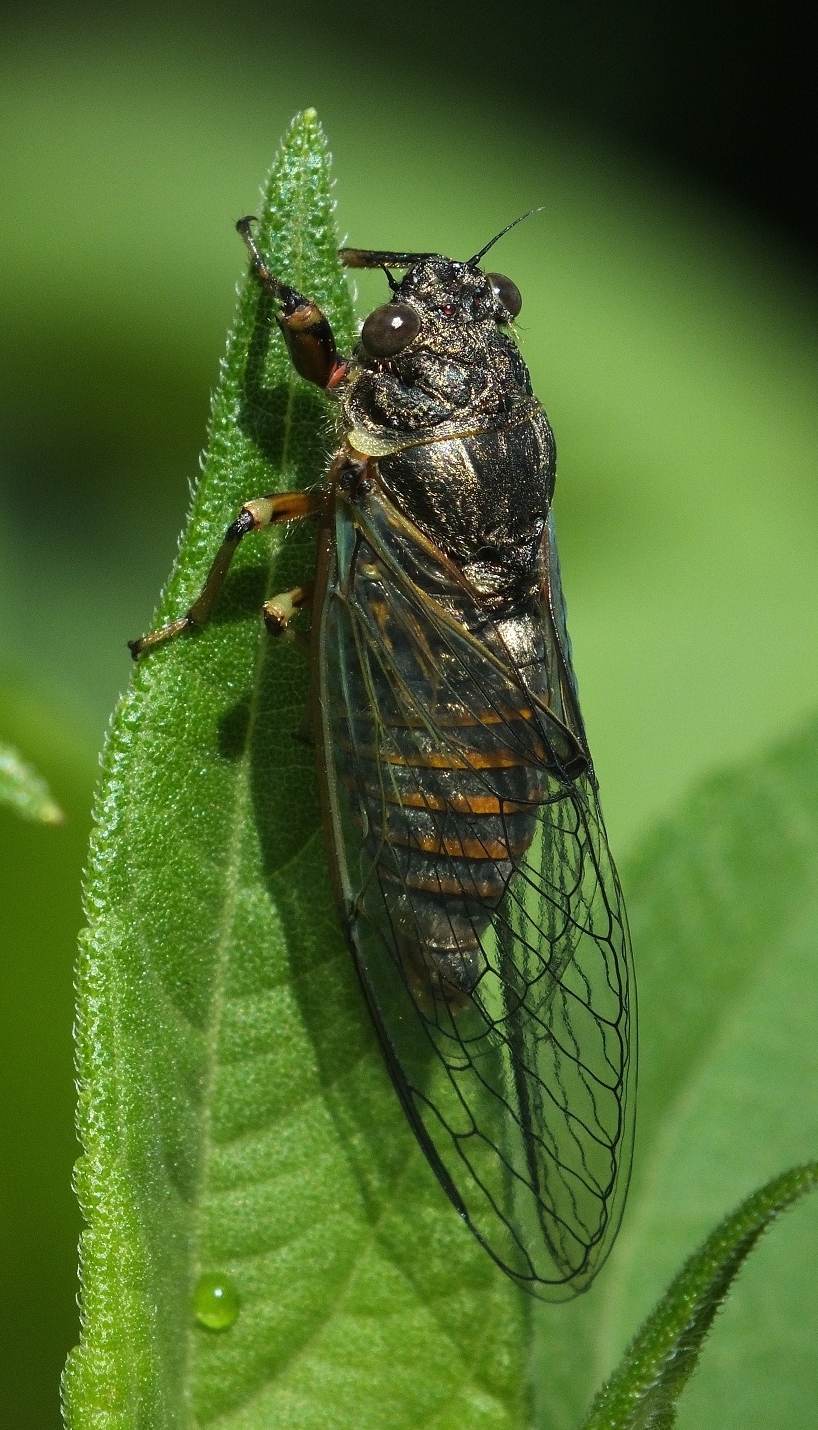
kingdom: Animalia
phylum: Arthropoda
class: Insecta
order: Hemiptera
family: Cicadidae
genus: Cicadetta
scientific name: Cicadetta montana
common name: New forest cicada
